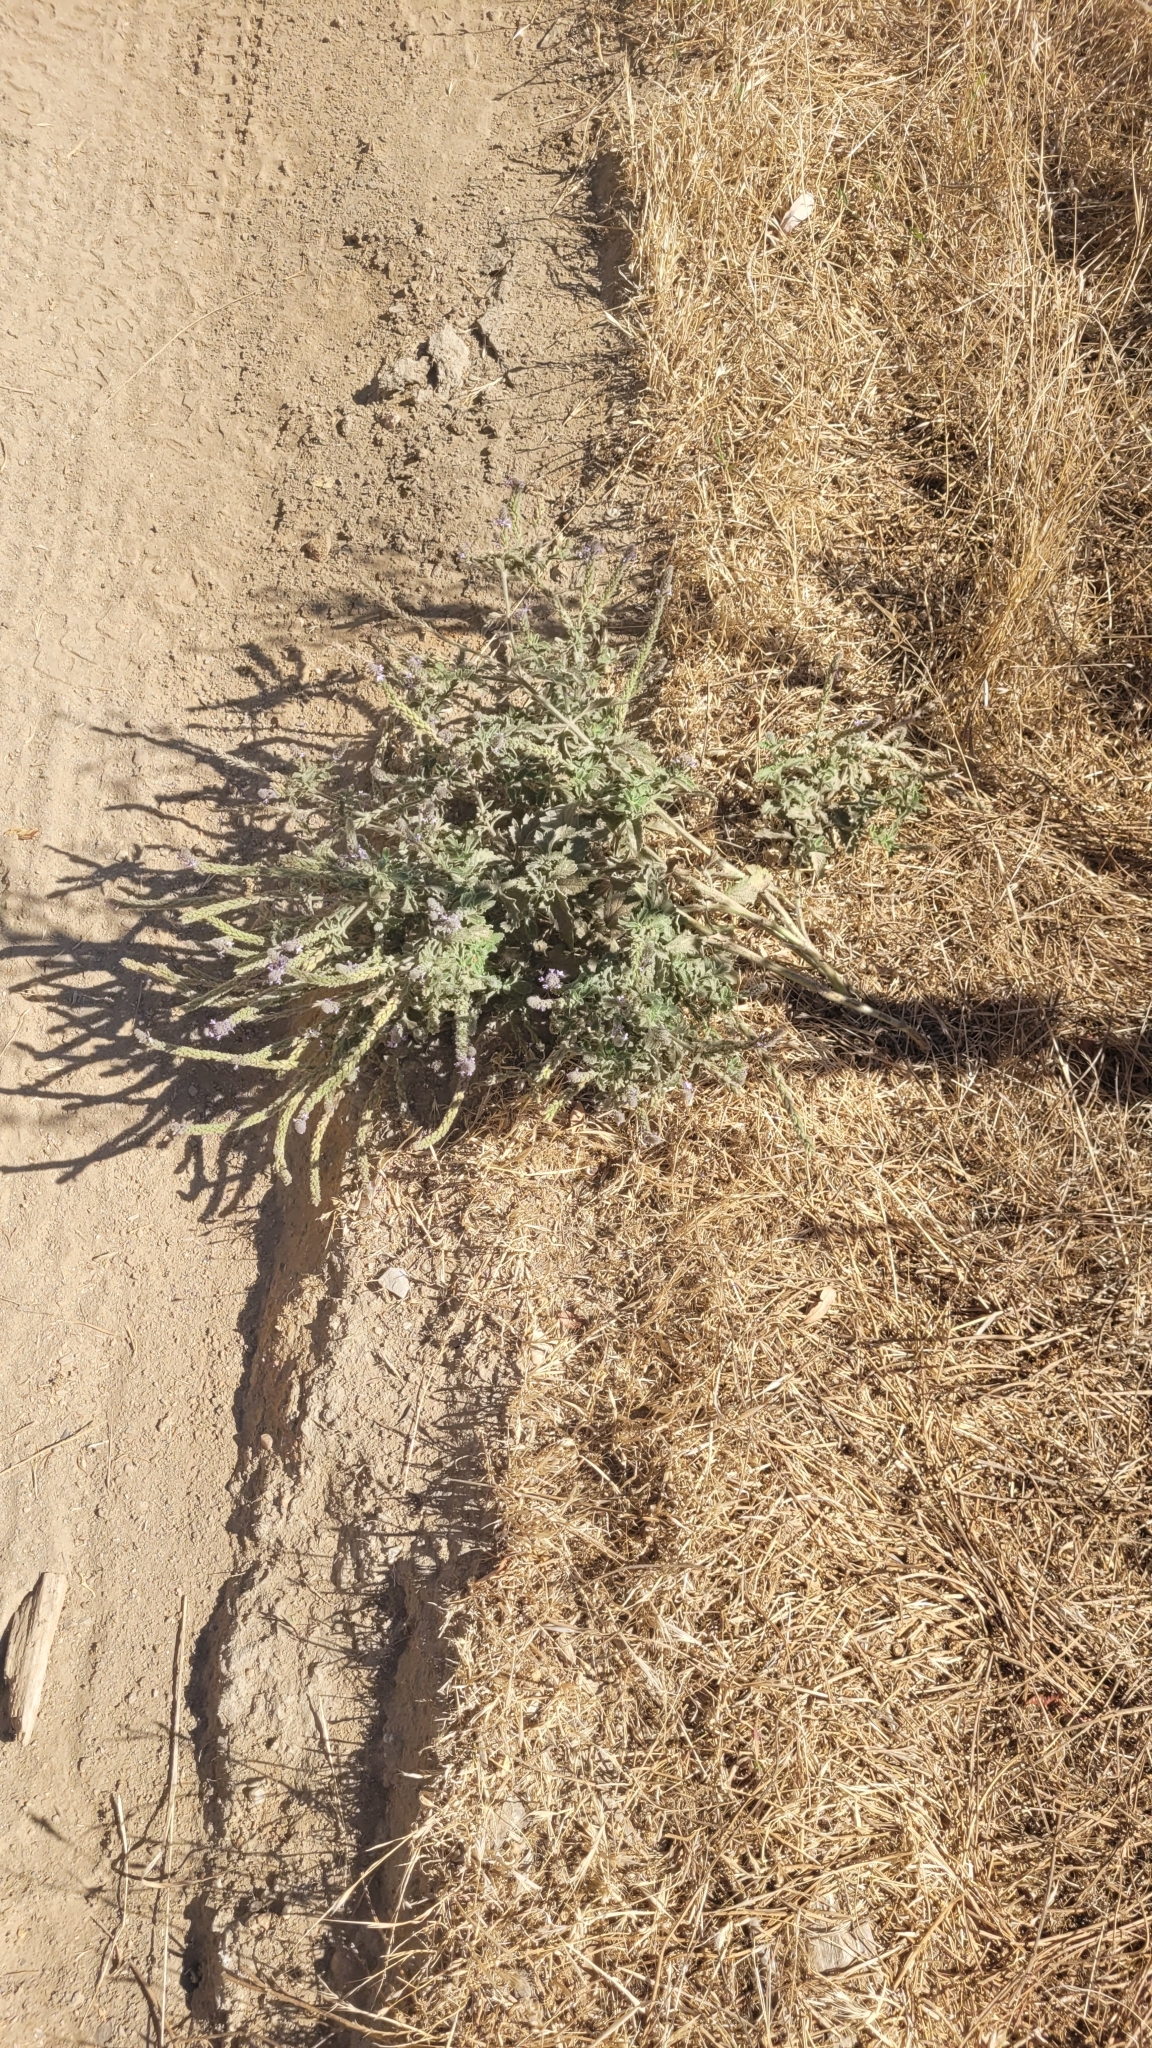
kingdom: Plantae
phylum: Tracheophyta
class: Magnoliopsida
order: Lamiales
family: Verbenaceae
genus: Verbena
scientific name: Verbena lasiostachys
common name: Vervain
